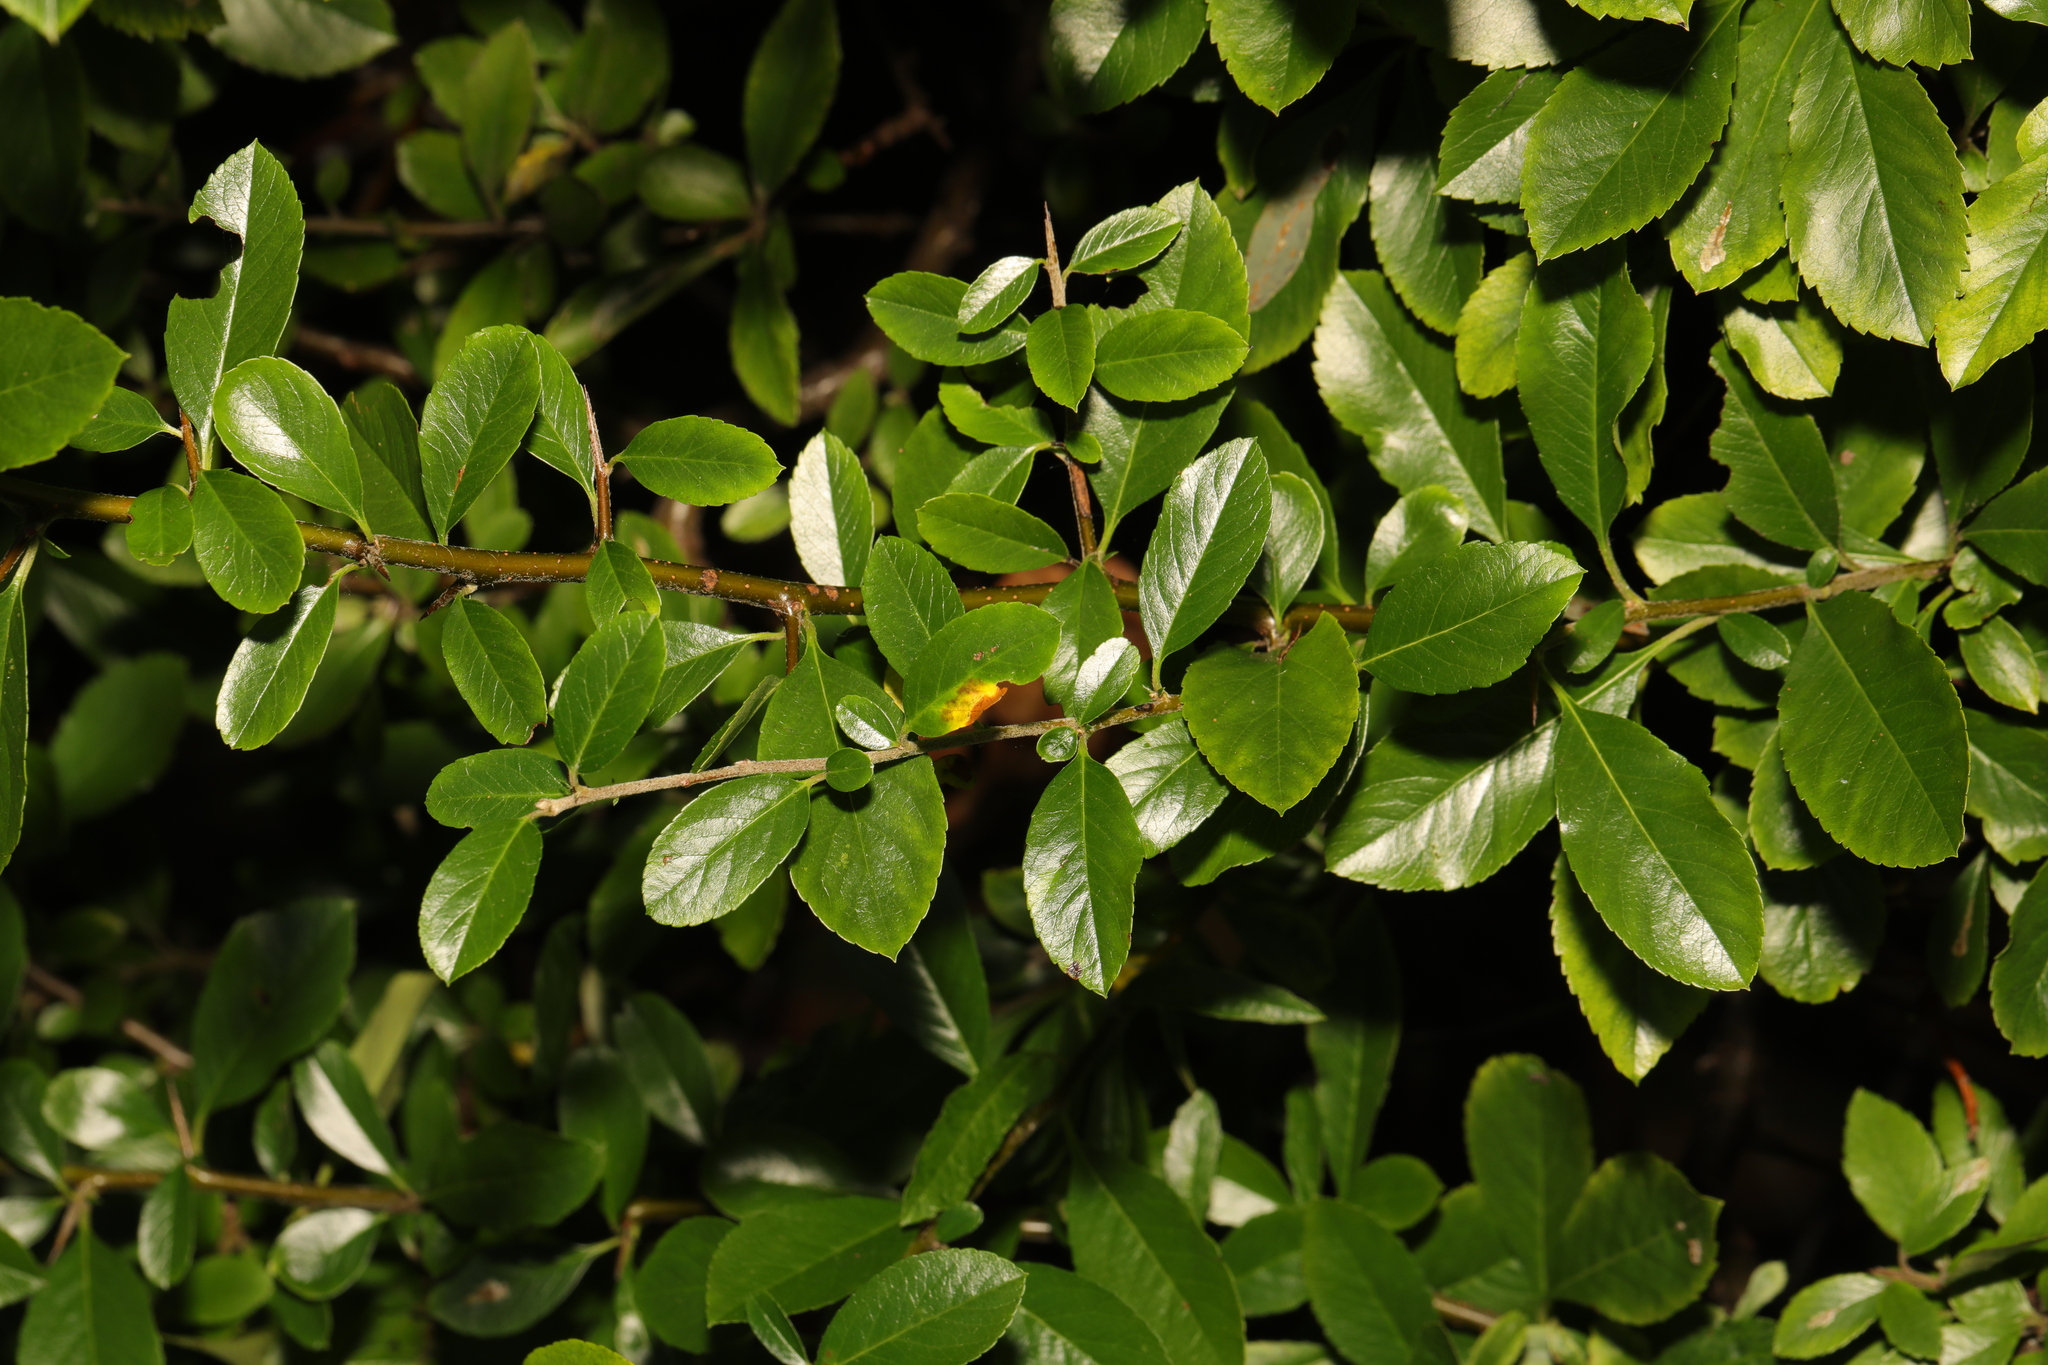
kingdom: Plantae
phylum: Tracheophyta
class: Magnoliopsida
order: Rosales
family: Rosaceae
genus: Pyracantha
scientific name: Pyracantha coccinea
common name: Firethorn
